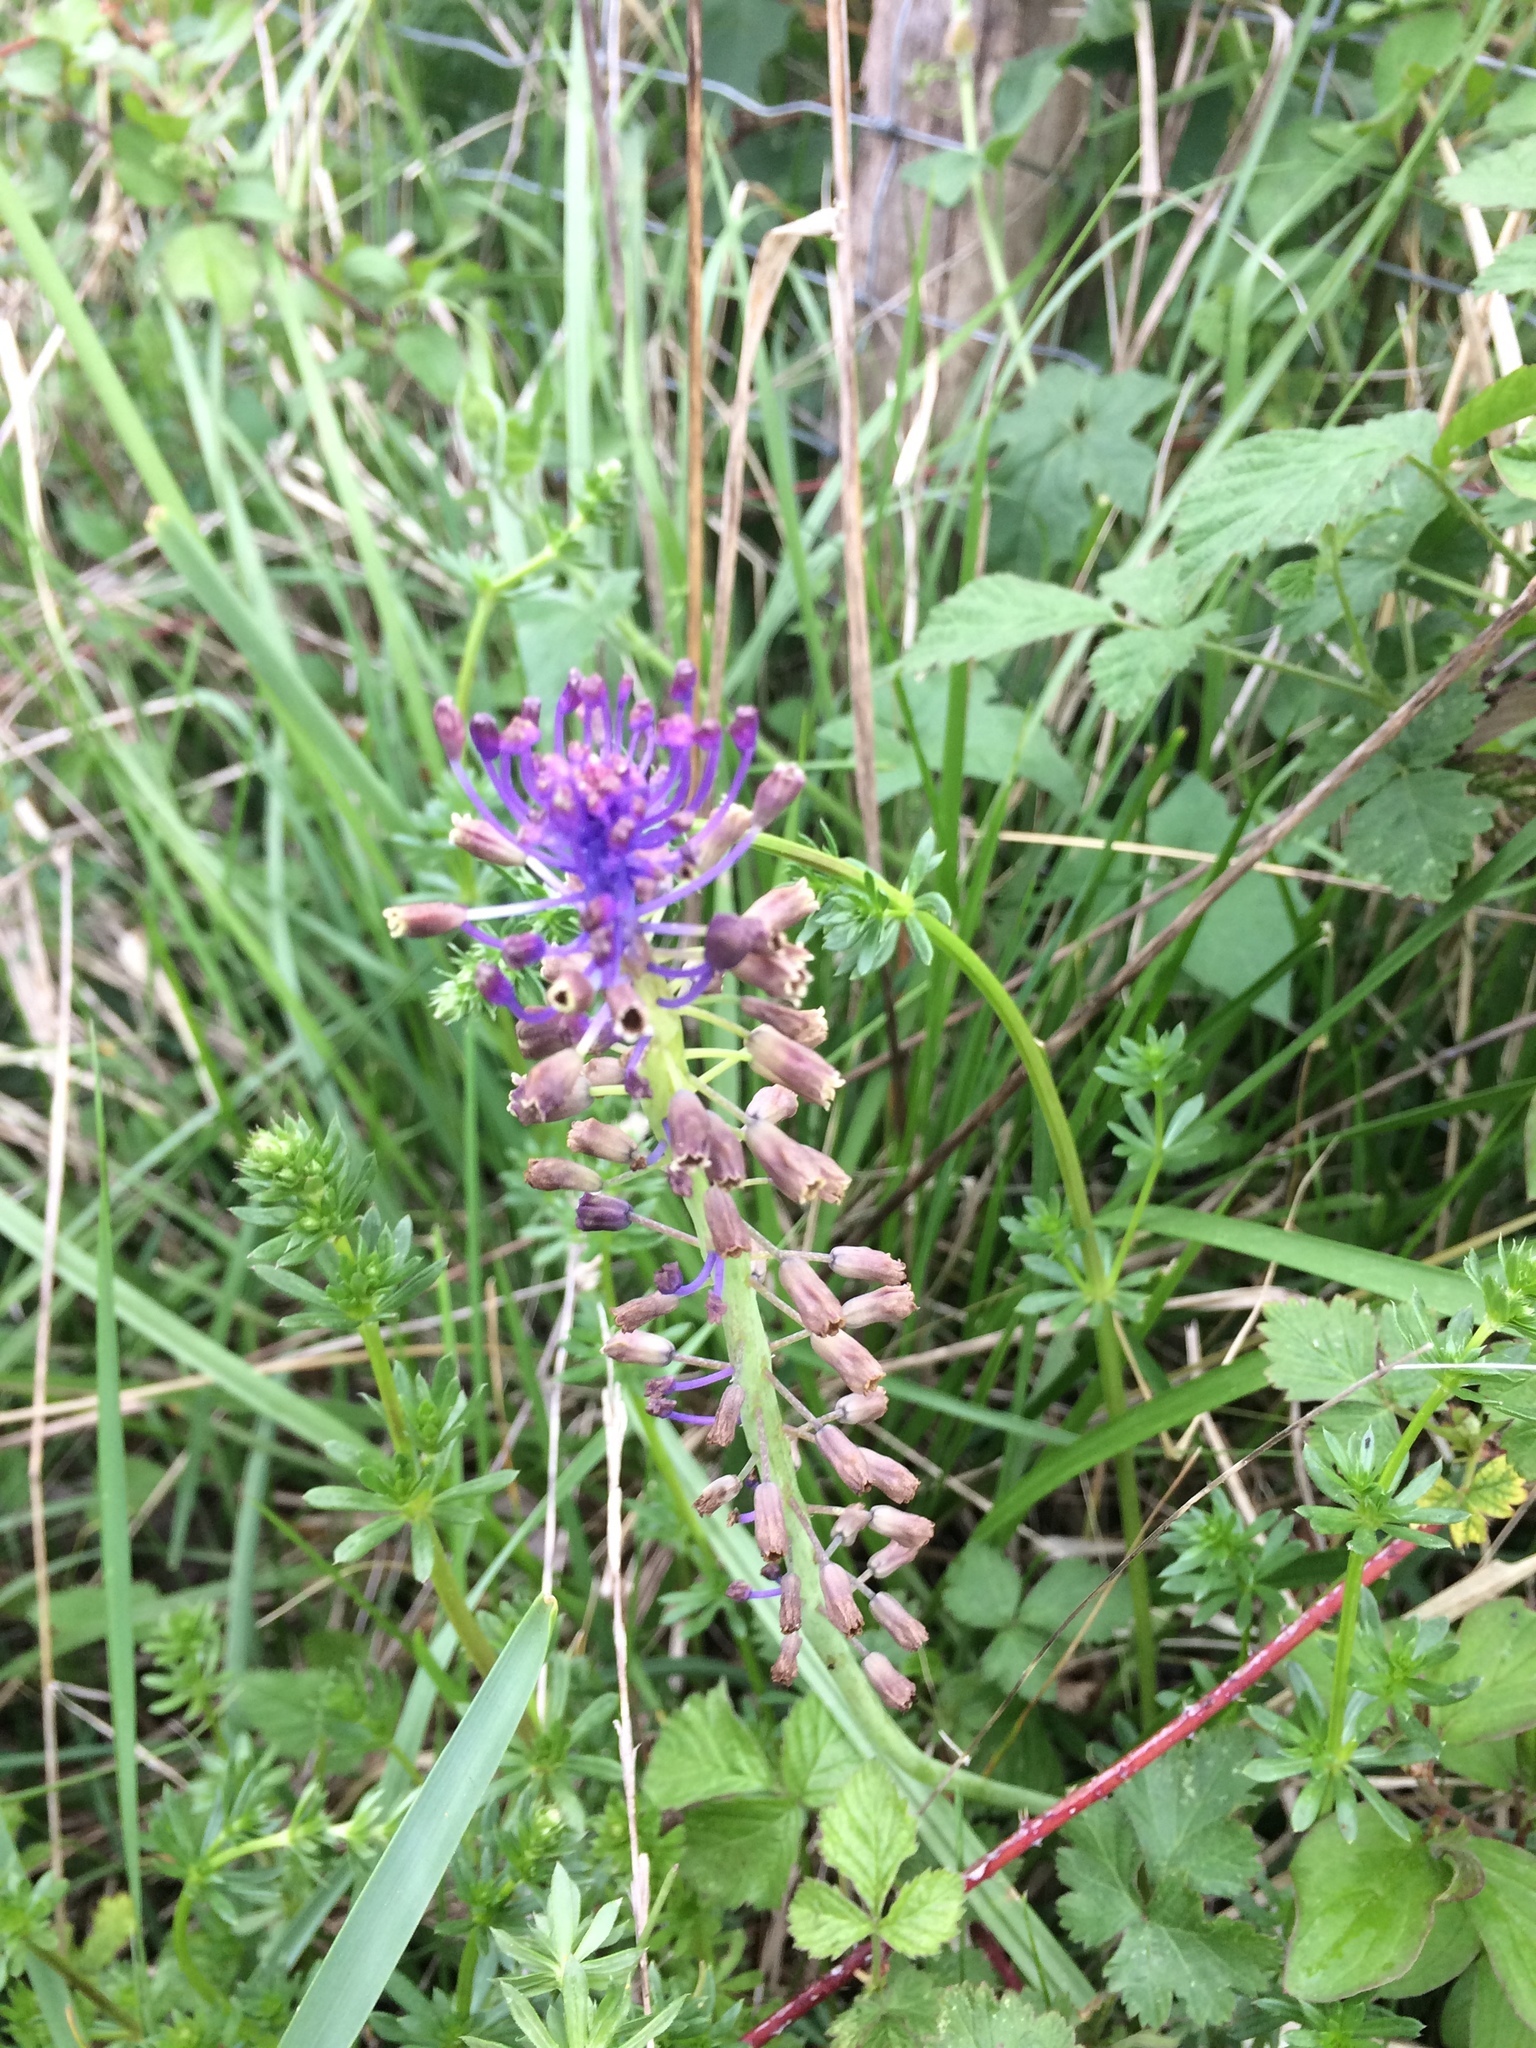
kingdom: Plantae
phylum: Tracheophyta
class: Liliopsida
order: Asparagales
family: Asparagaceae
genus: Muscari
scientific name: Muscari comosum
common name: Tassel hyacinth
